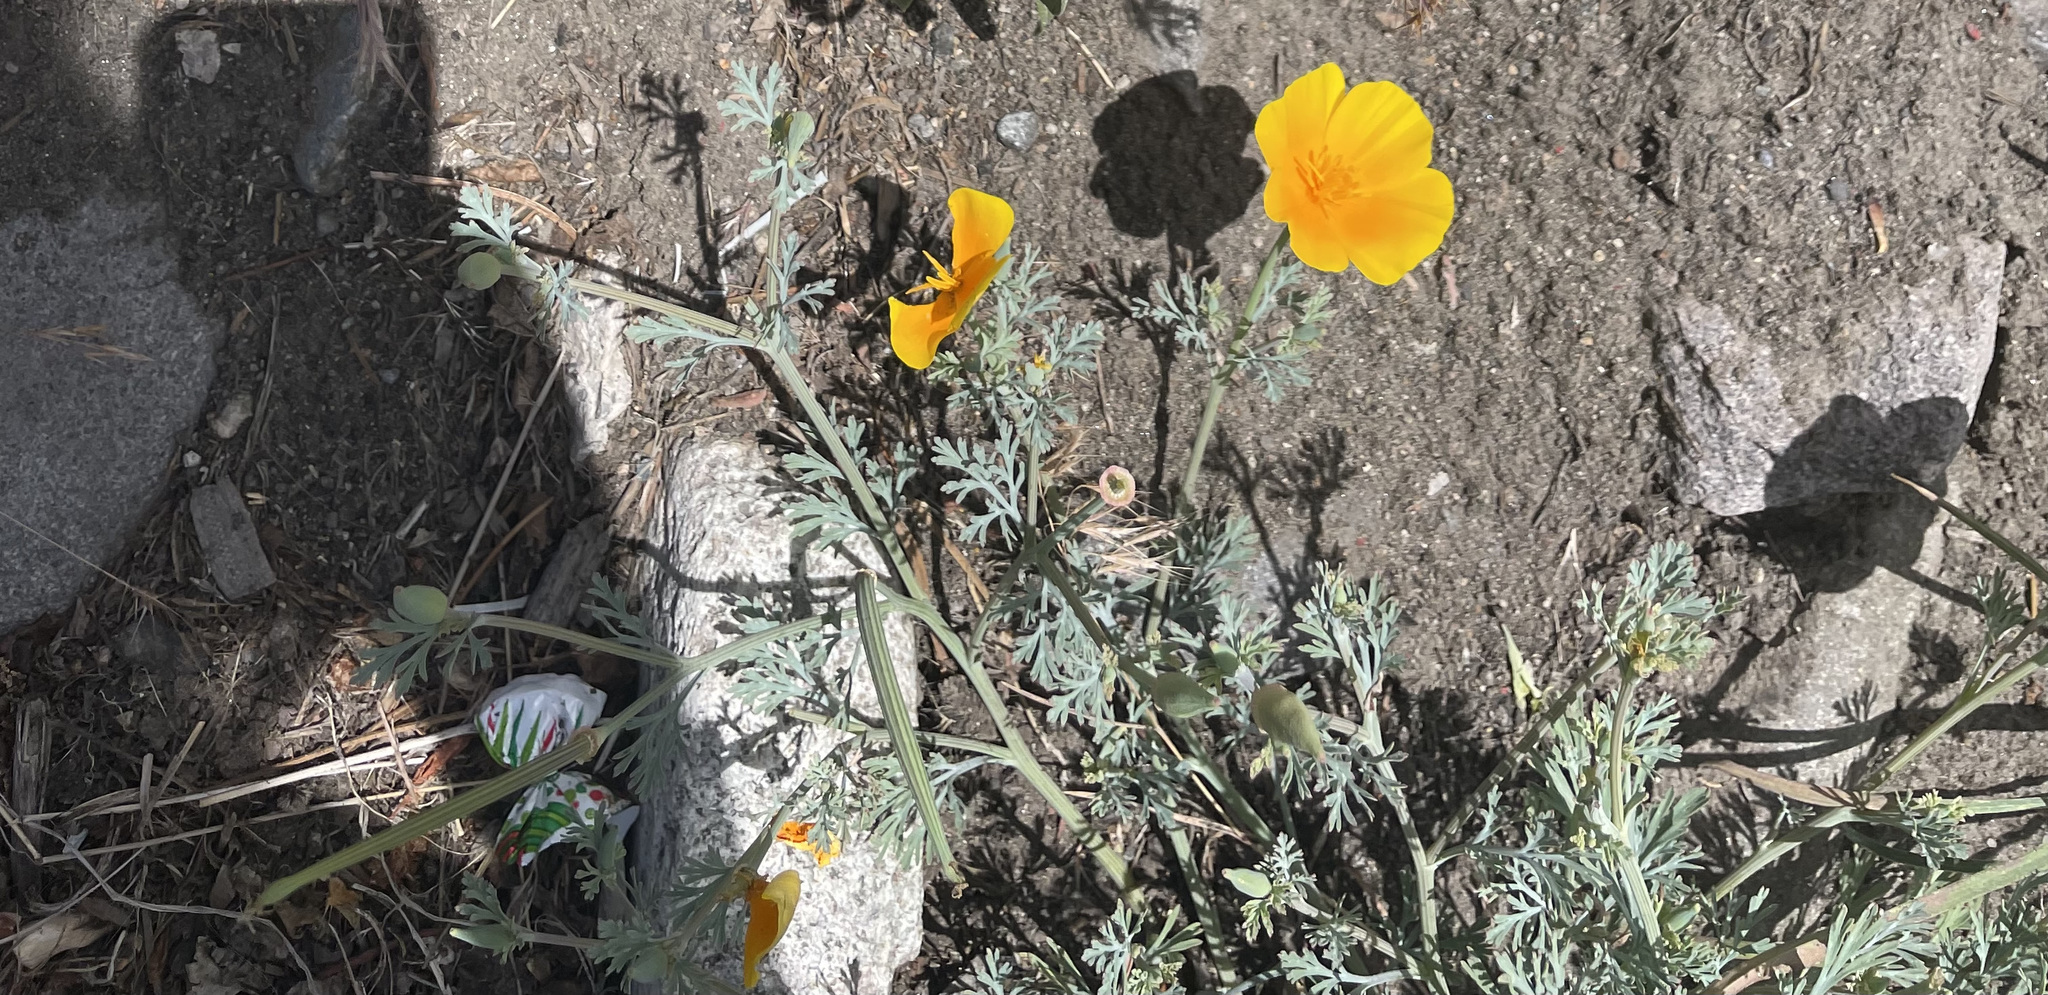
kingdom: Plantae
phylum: Tracheophyta
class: Magnoliopsida
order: Ranunculales
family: Papaveraceae
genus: Eschscholzia
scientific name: Eschscholzia californica
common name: California poppy
